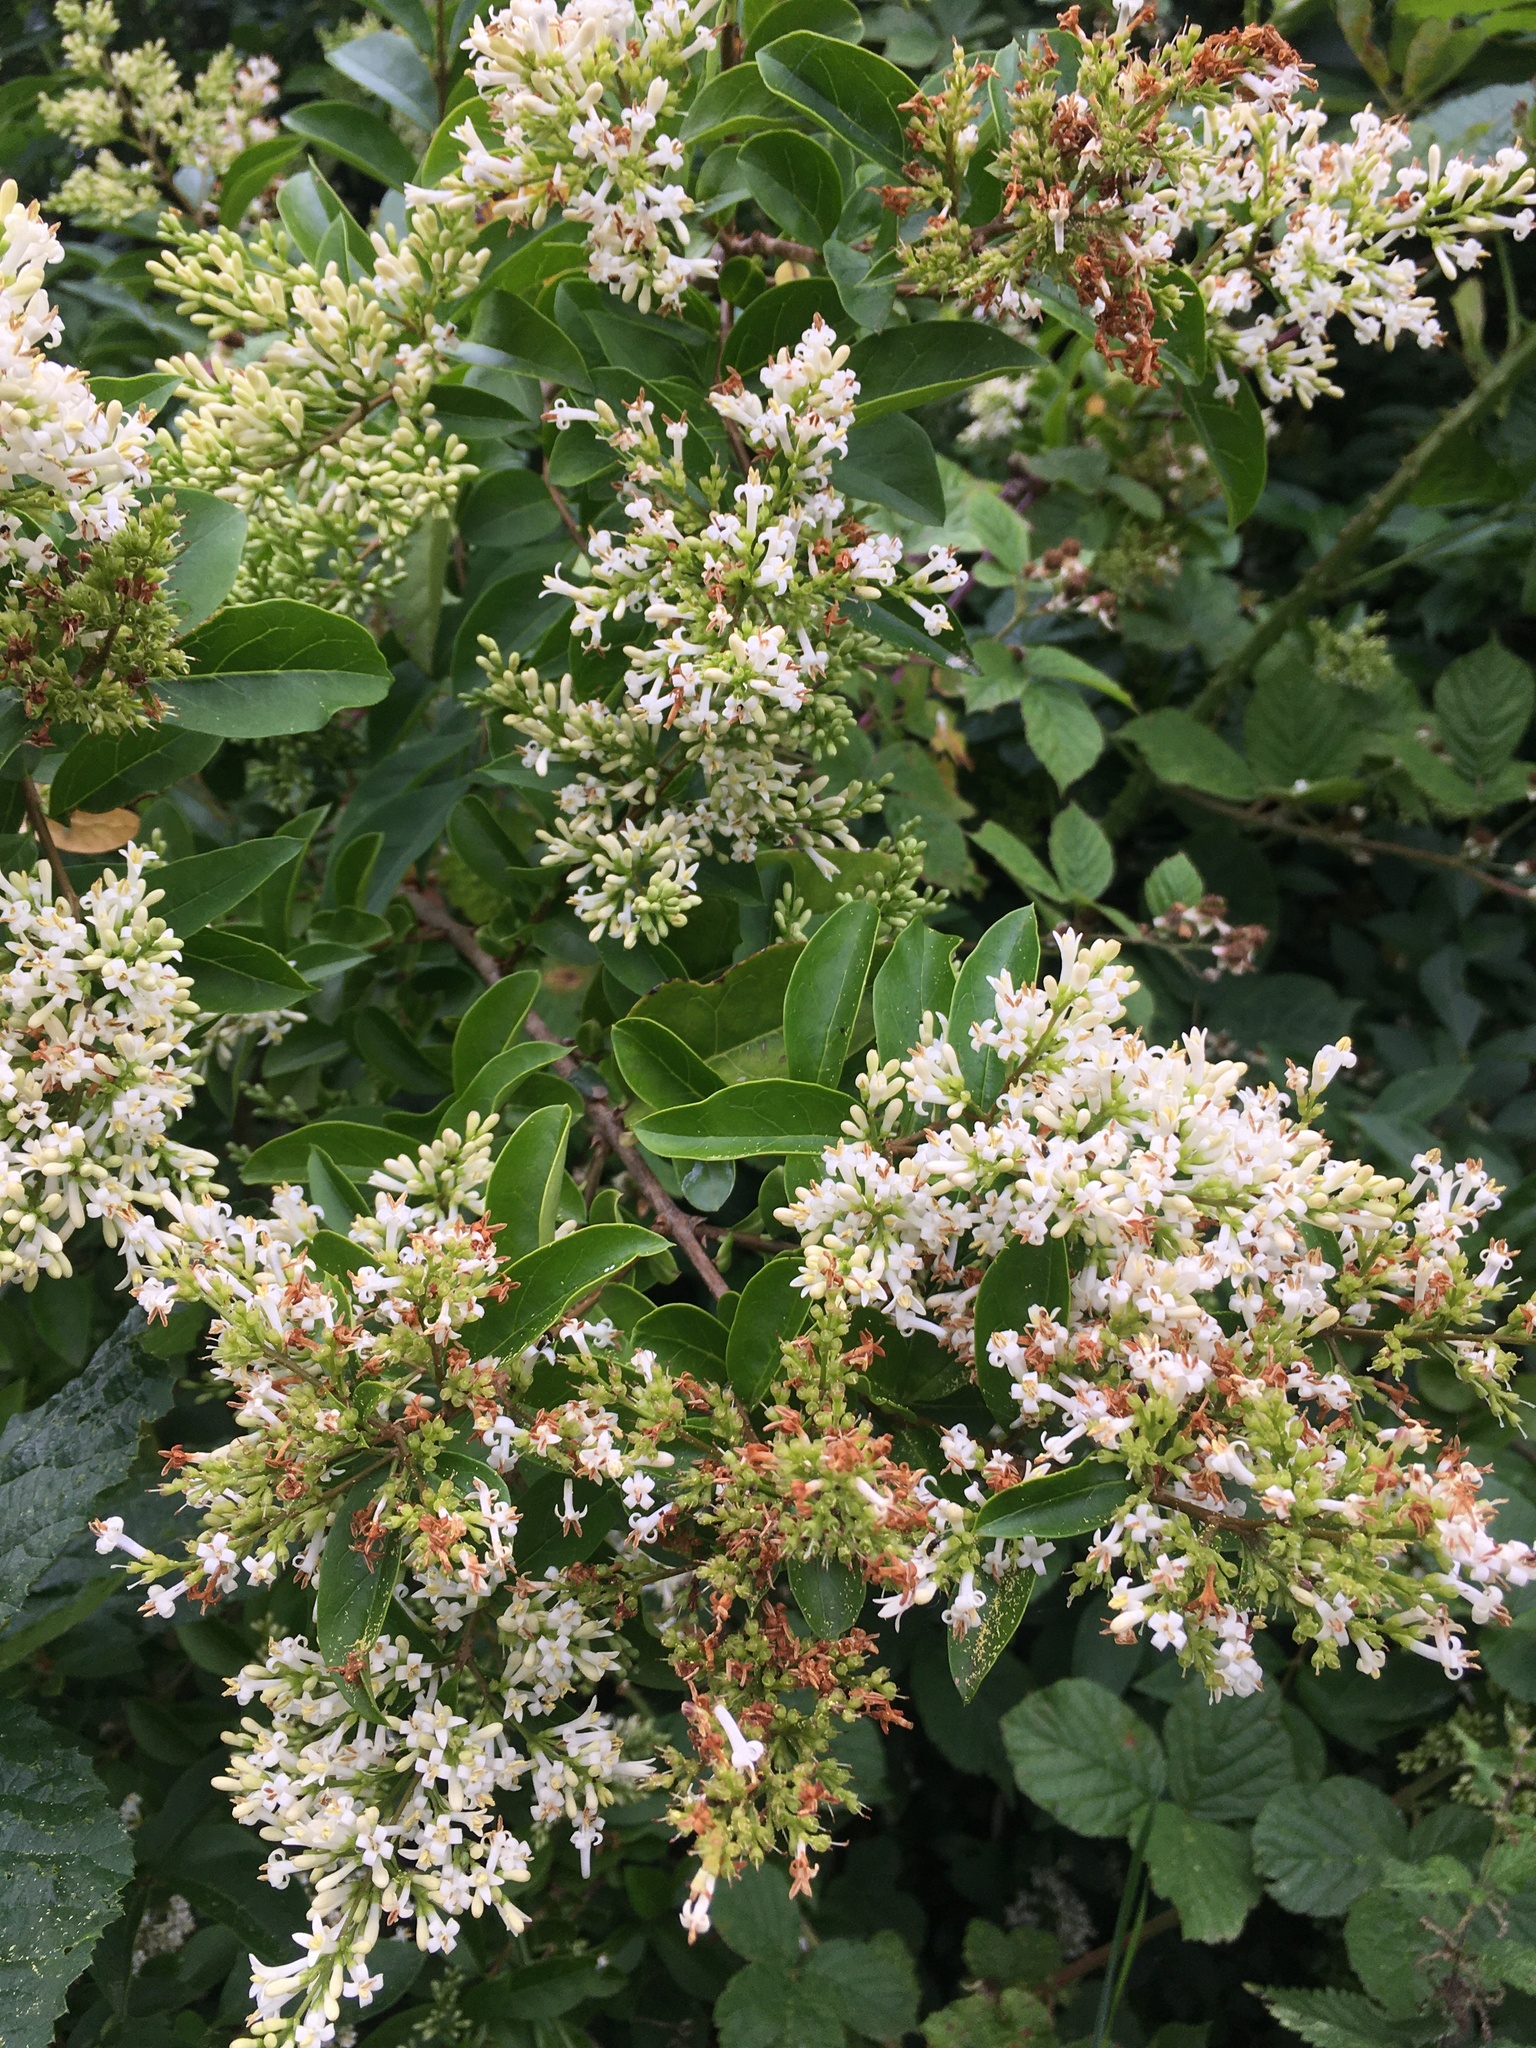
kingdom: Plantae
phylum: Tracheophyta
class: Magnoliopsida
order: Lamiales
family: Oleaceae
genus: Ligustrum
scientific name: Ligustrum ovalifolium
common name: California privet
